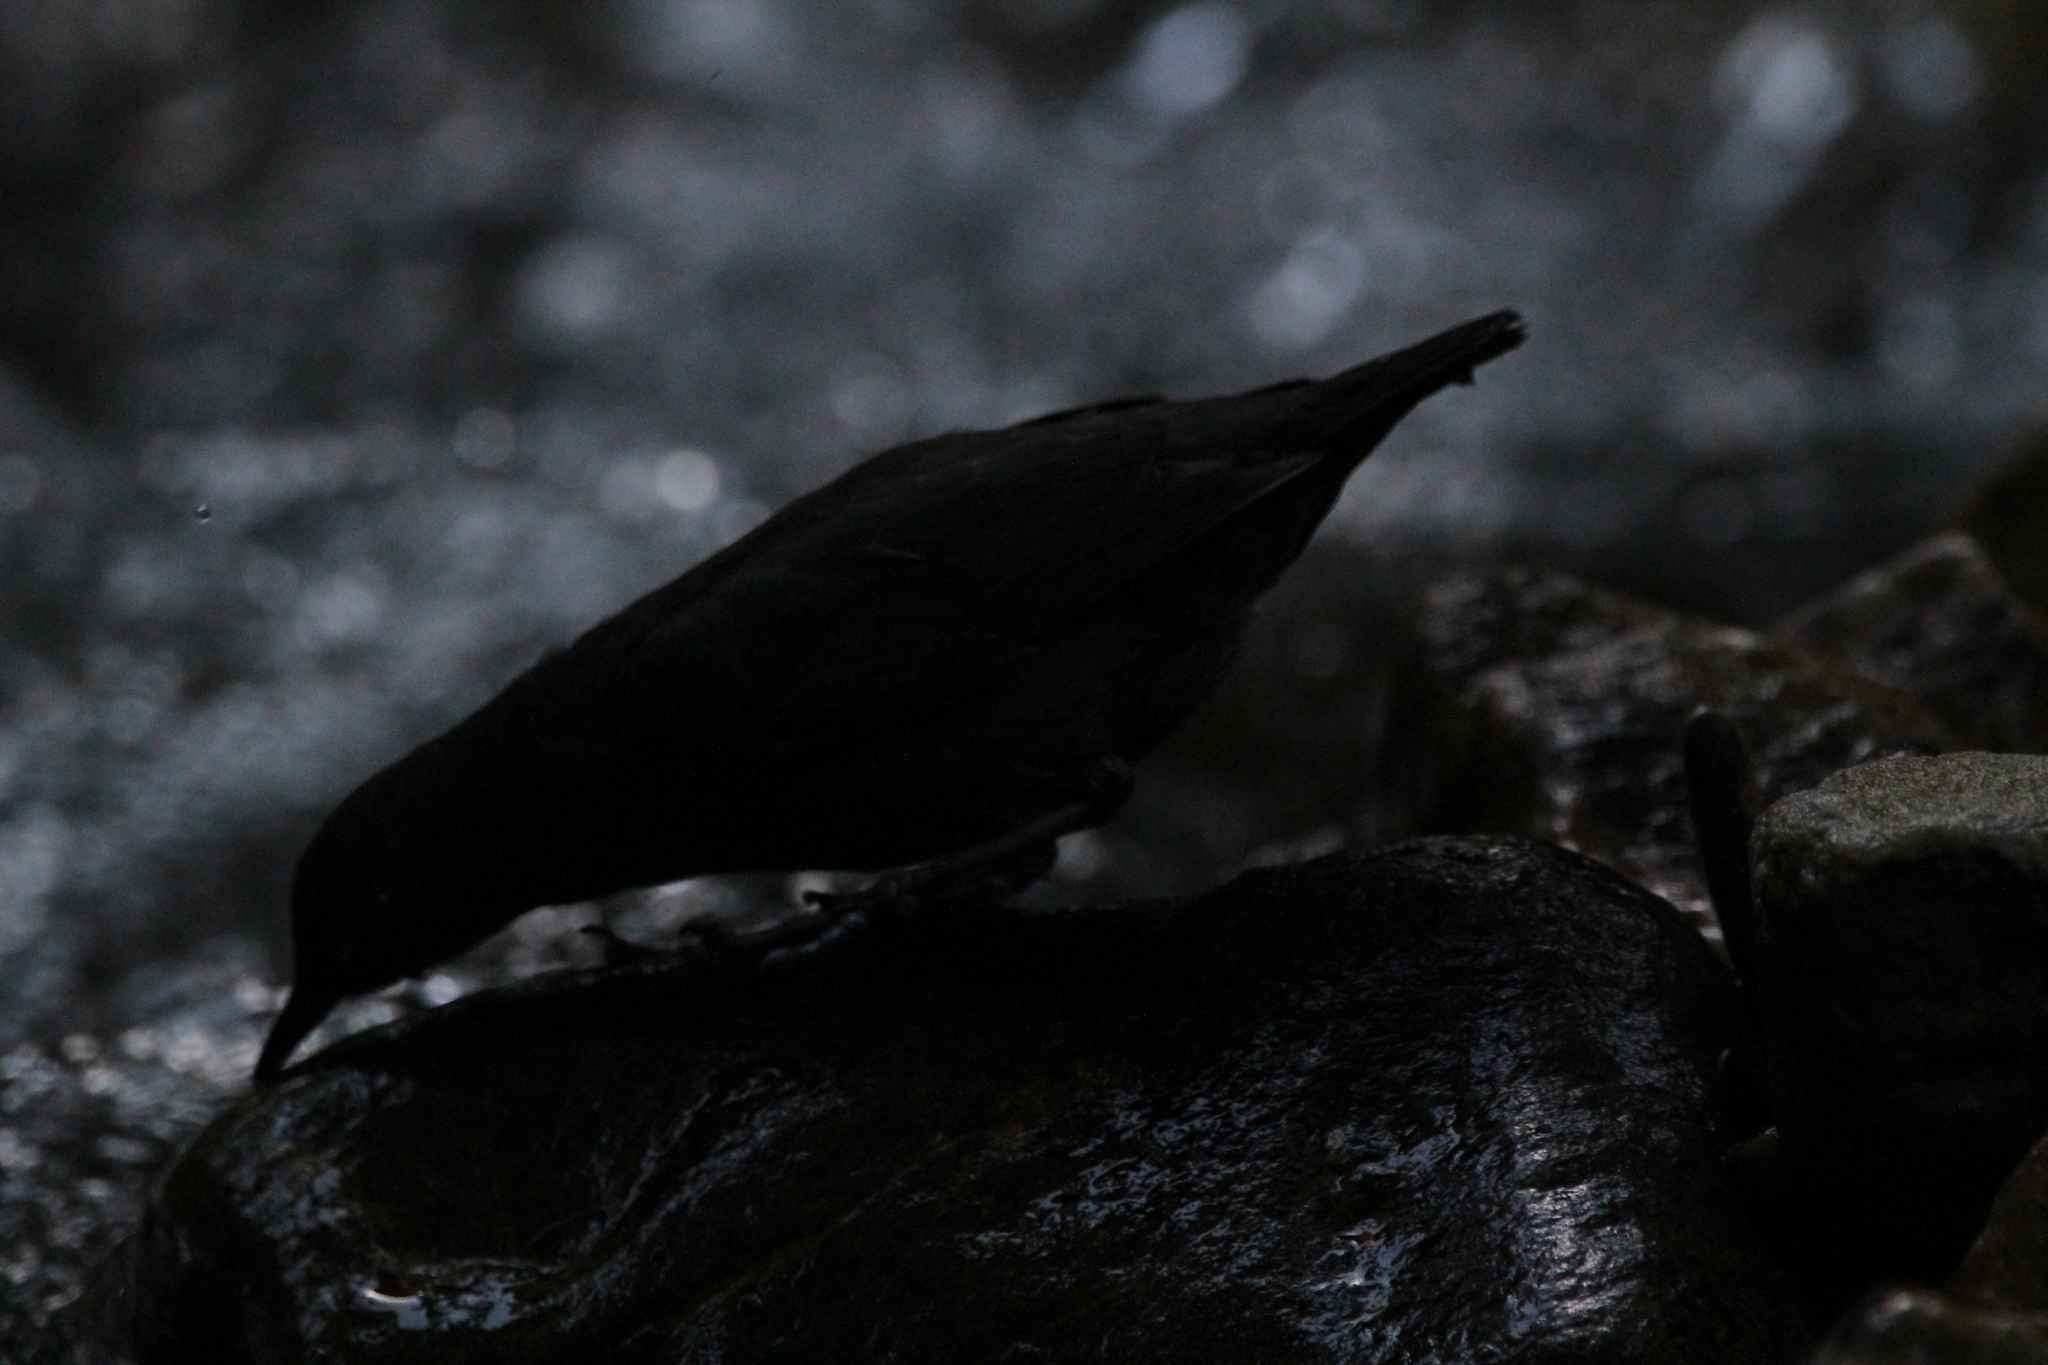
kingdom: Animalia
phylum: Chordata
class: Aves
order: Passeriformes
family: Cinclidae
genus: Cinclus
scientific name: Cinclus mexicanus
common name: American dipper
